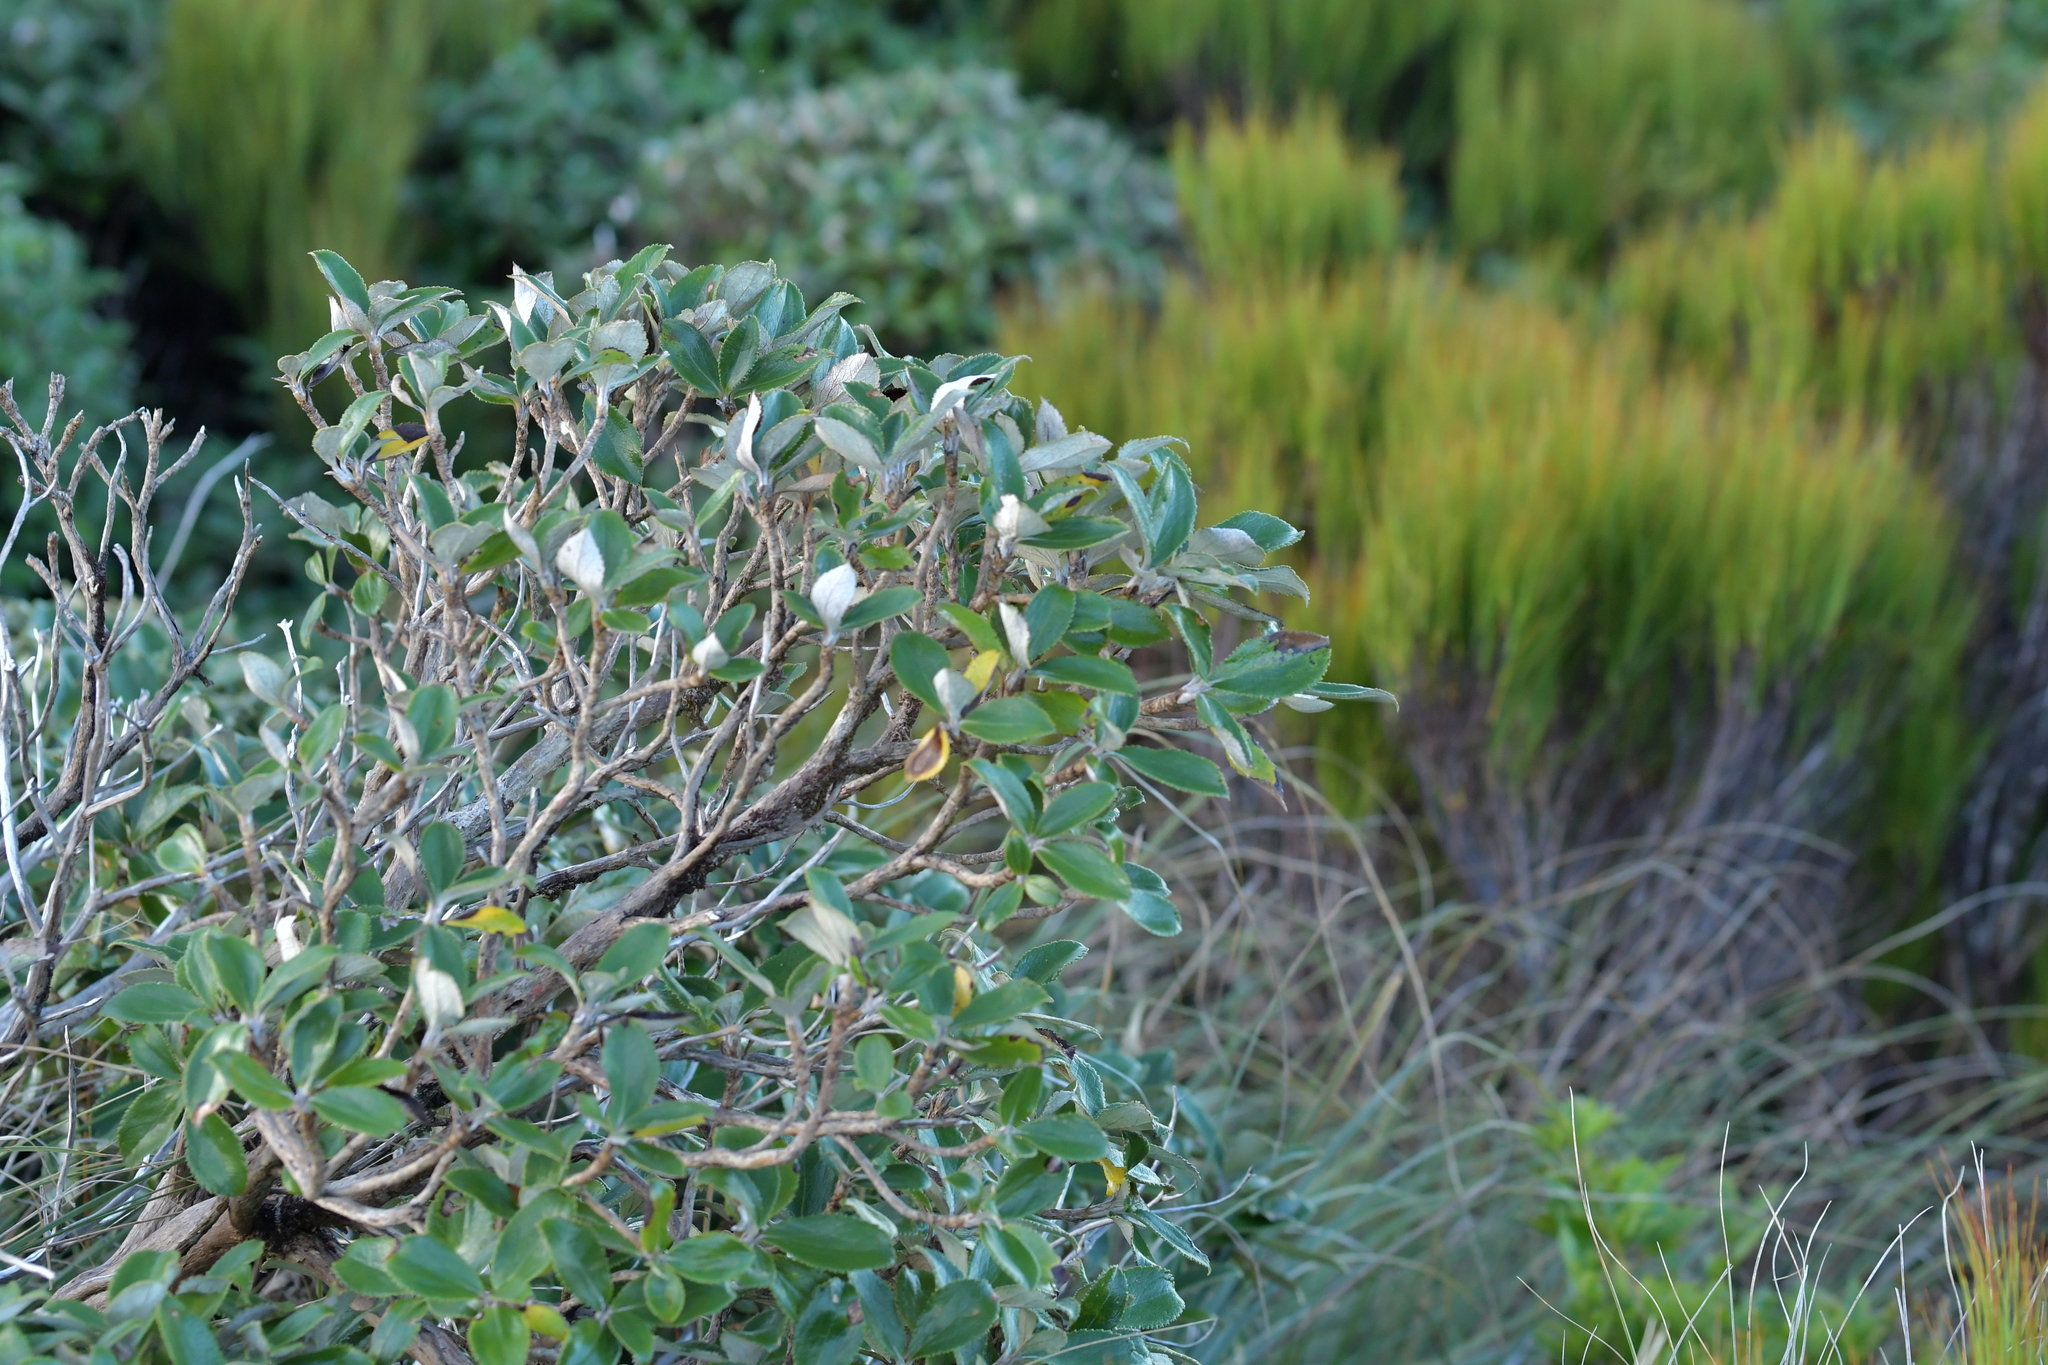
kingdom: Plantae
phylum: Tracheophyta
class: Magnoliopsida
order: Asterales
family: Asteraceae
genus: Macrolearia
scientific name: Macrolearia colensoi
